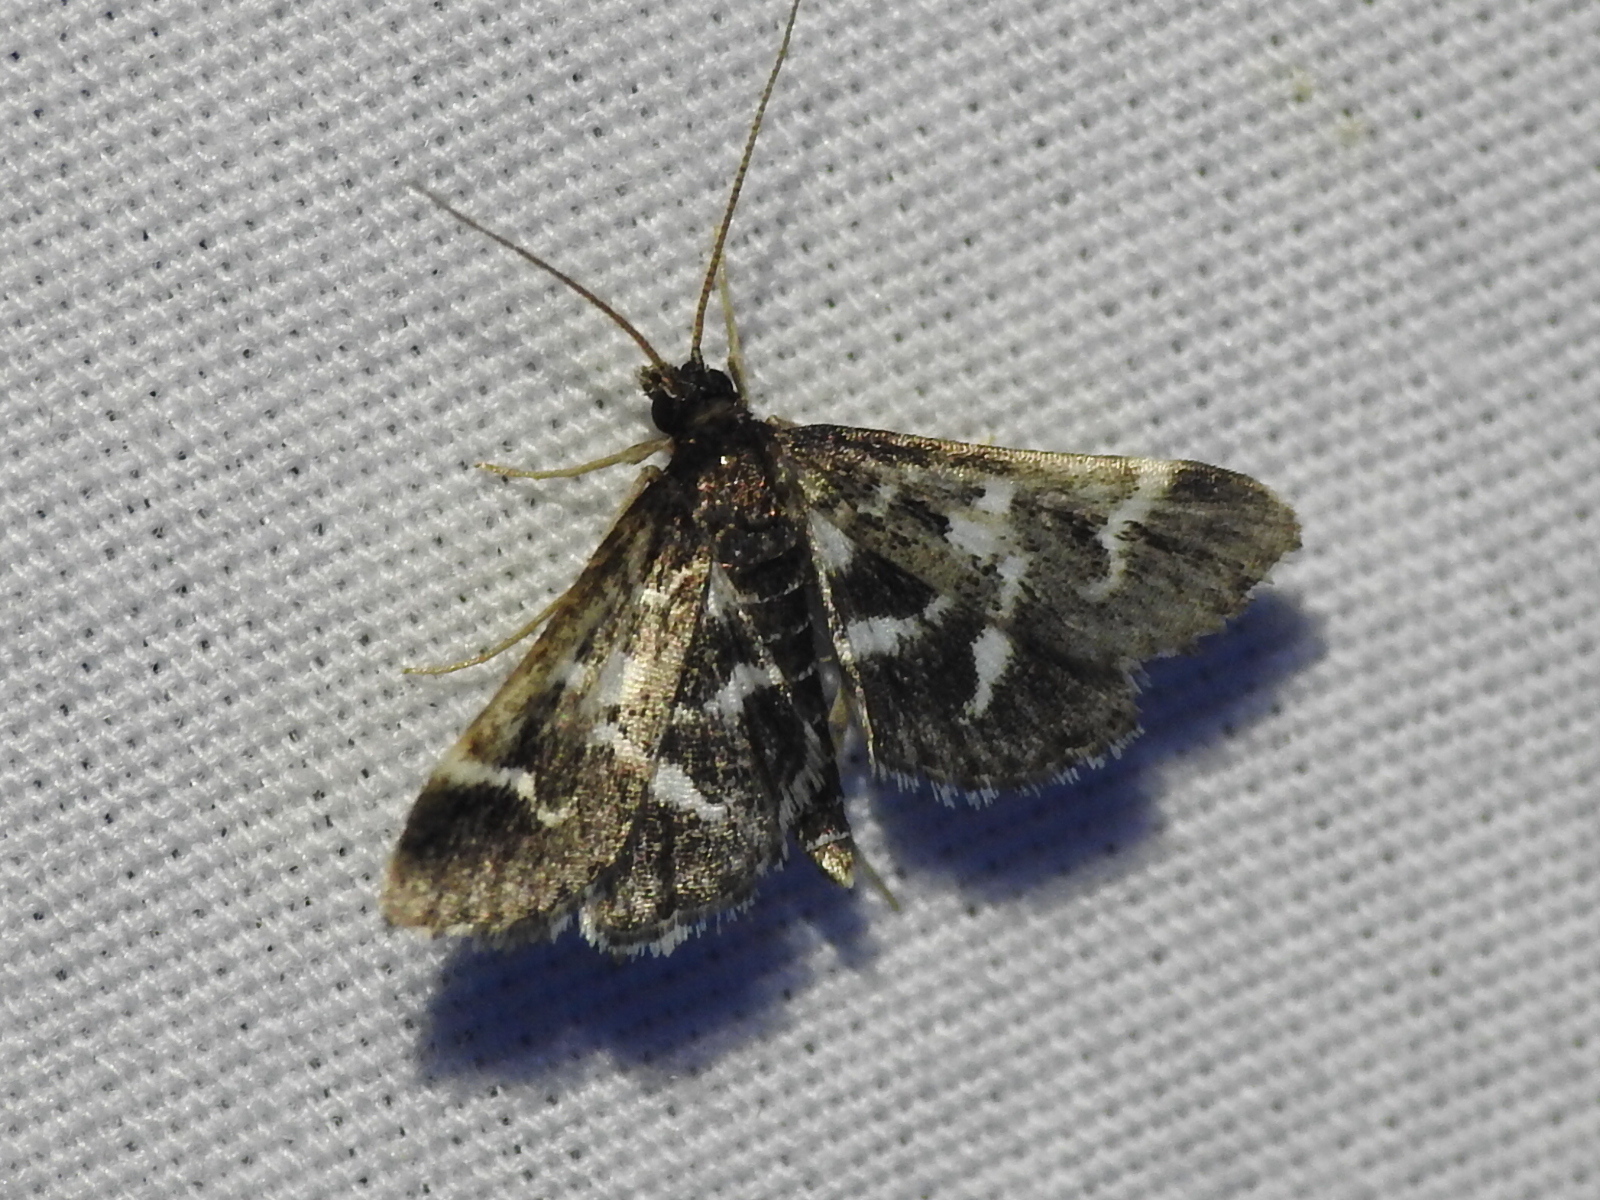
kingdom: Animalia
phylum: Arthropoda
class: Insecta
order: Lepidoptera
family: Crambidae
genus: Diasemiodes
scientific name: Diasemiodes janassialis
